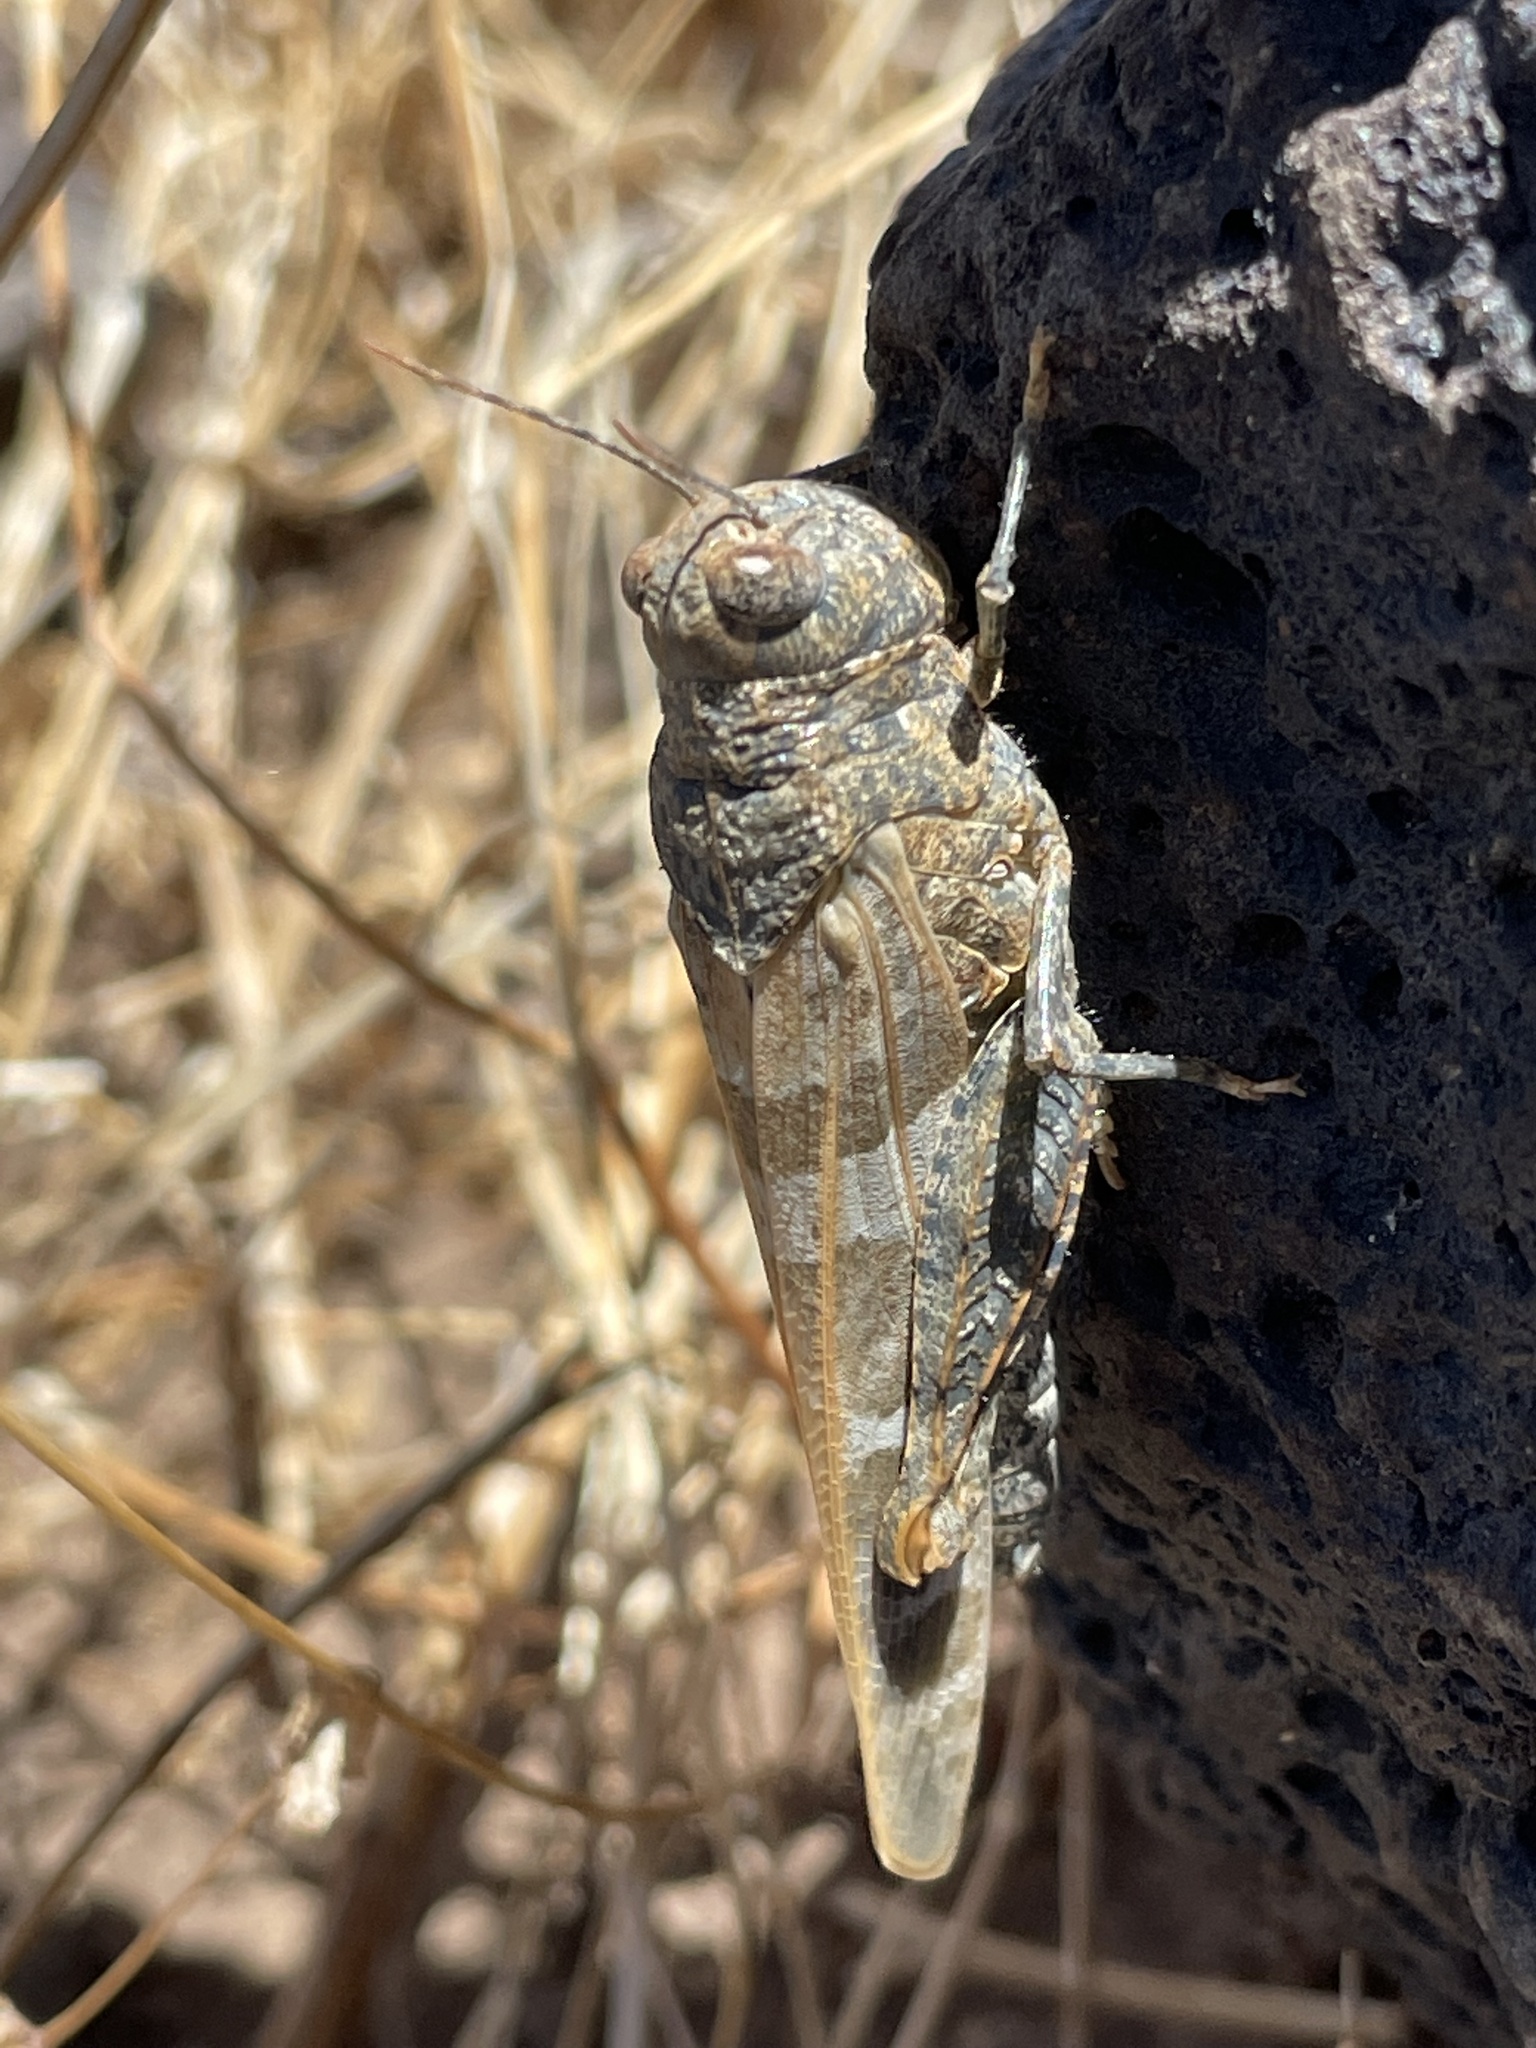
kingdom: Animalia
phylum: Arthropoda
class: Insecta
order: Orthoptera
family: Acrididae
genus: Leprus
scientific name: Leprus intermedius
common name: Saussure's blue-winged grasshopper
